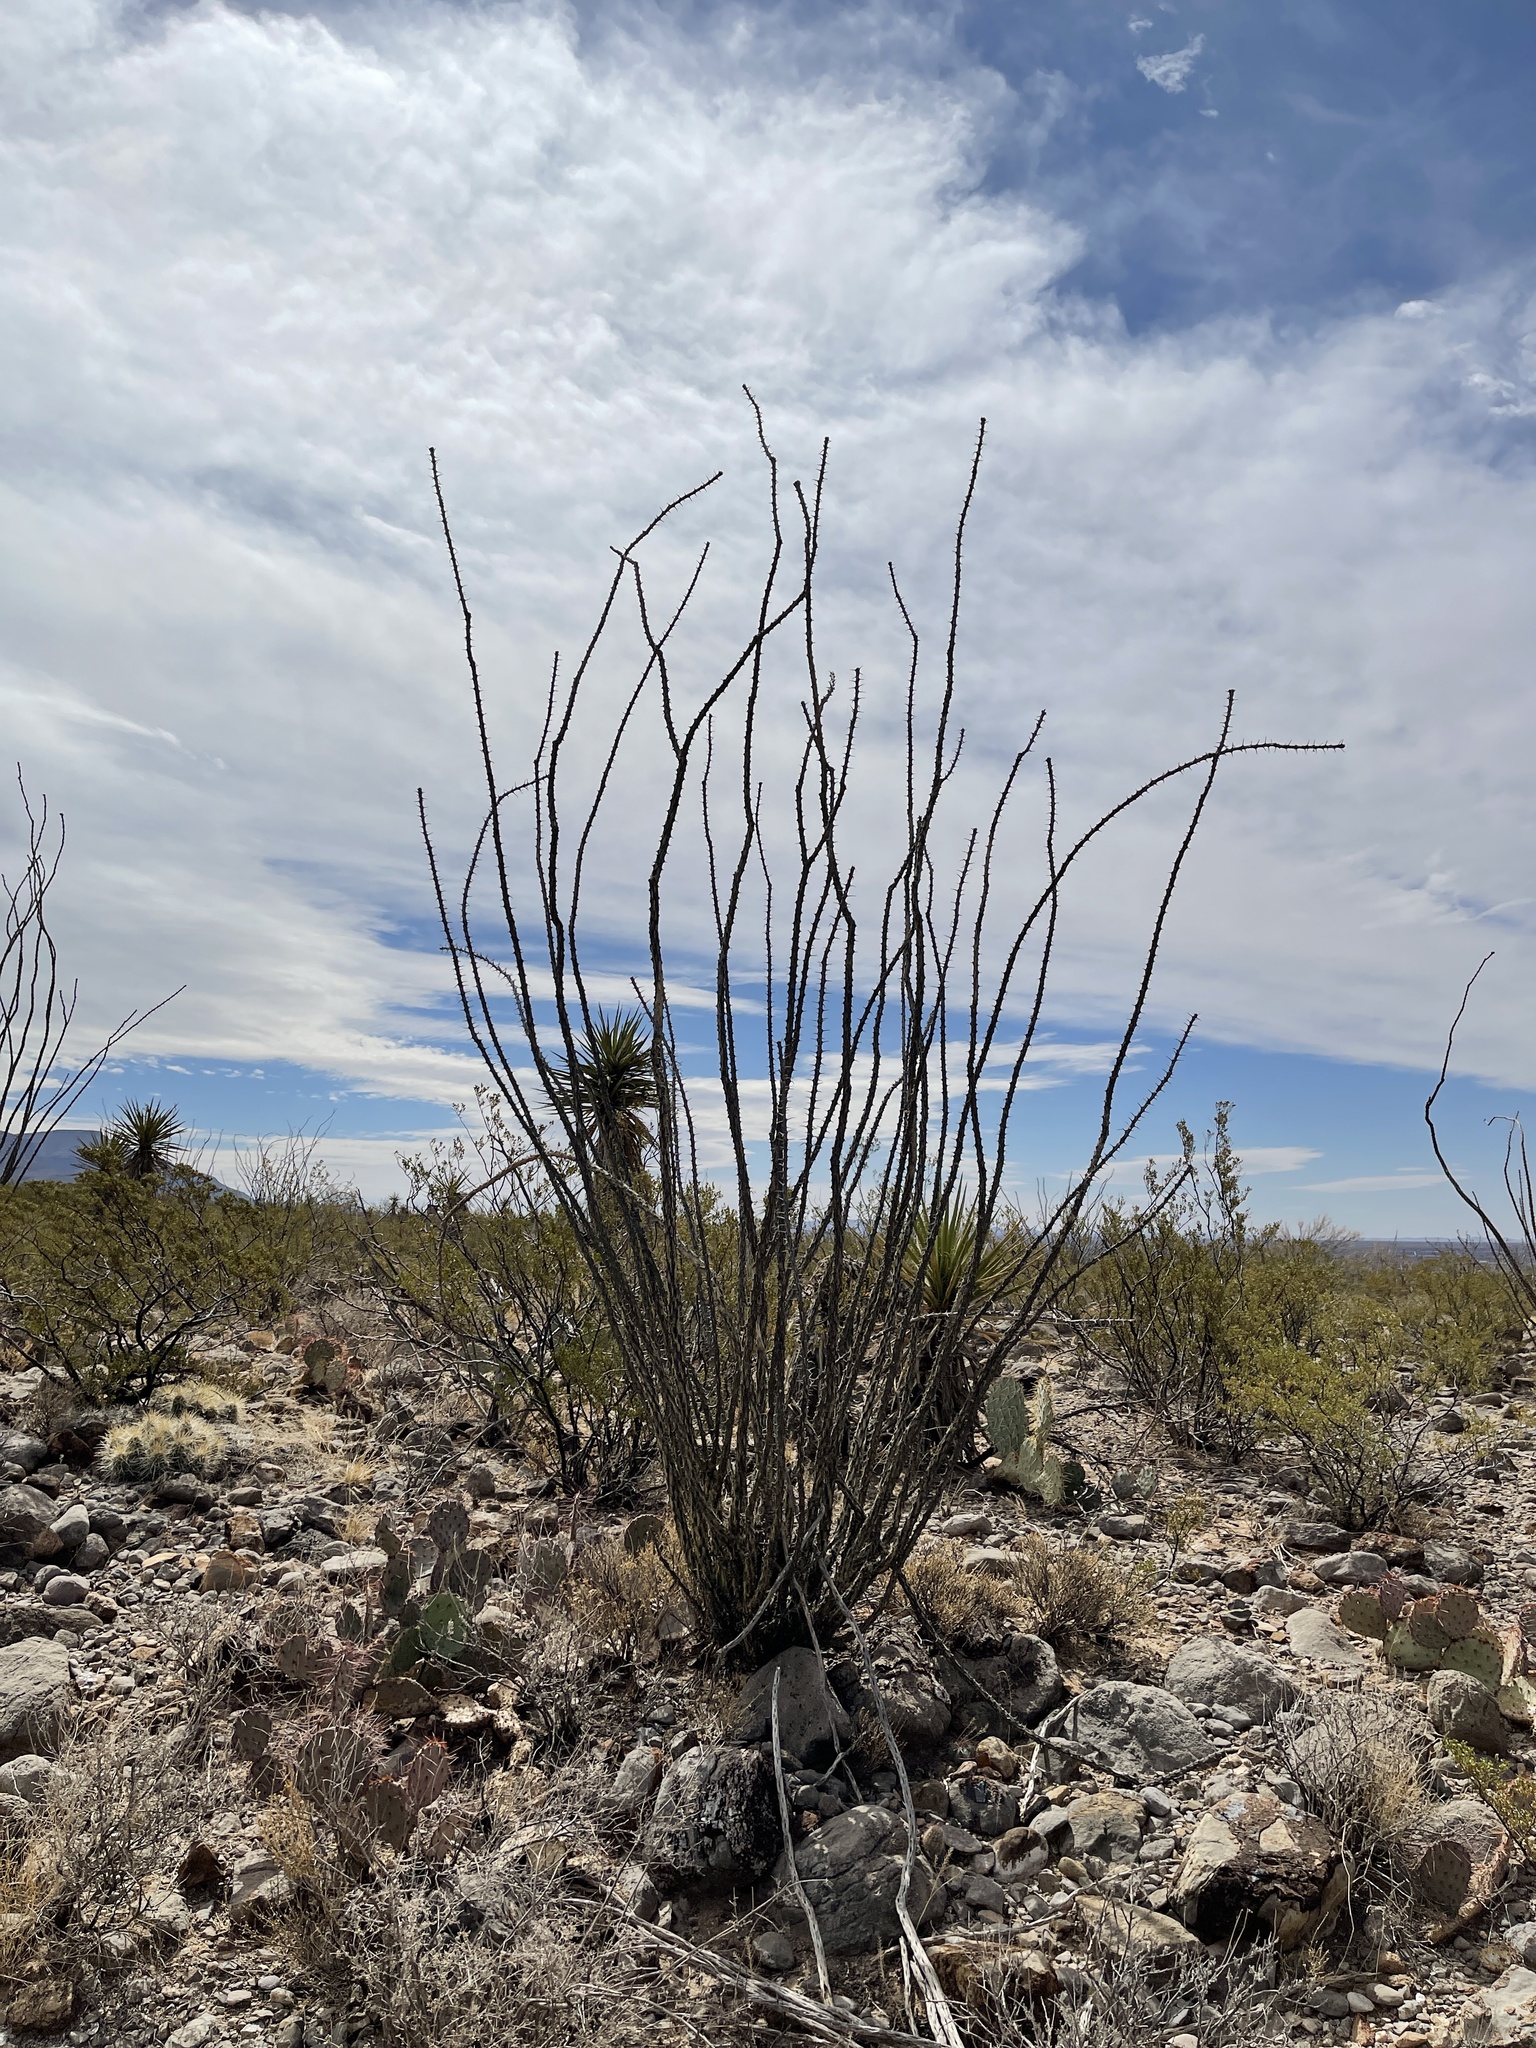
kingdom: Plantae
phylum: Tracheophyta
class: Magnoliopsida
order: Ericales
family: Fouquieriaceae
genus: Fouquieria
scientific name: Fouquieria splendens
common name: Vine-cactus
